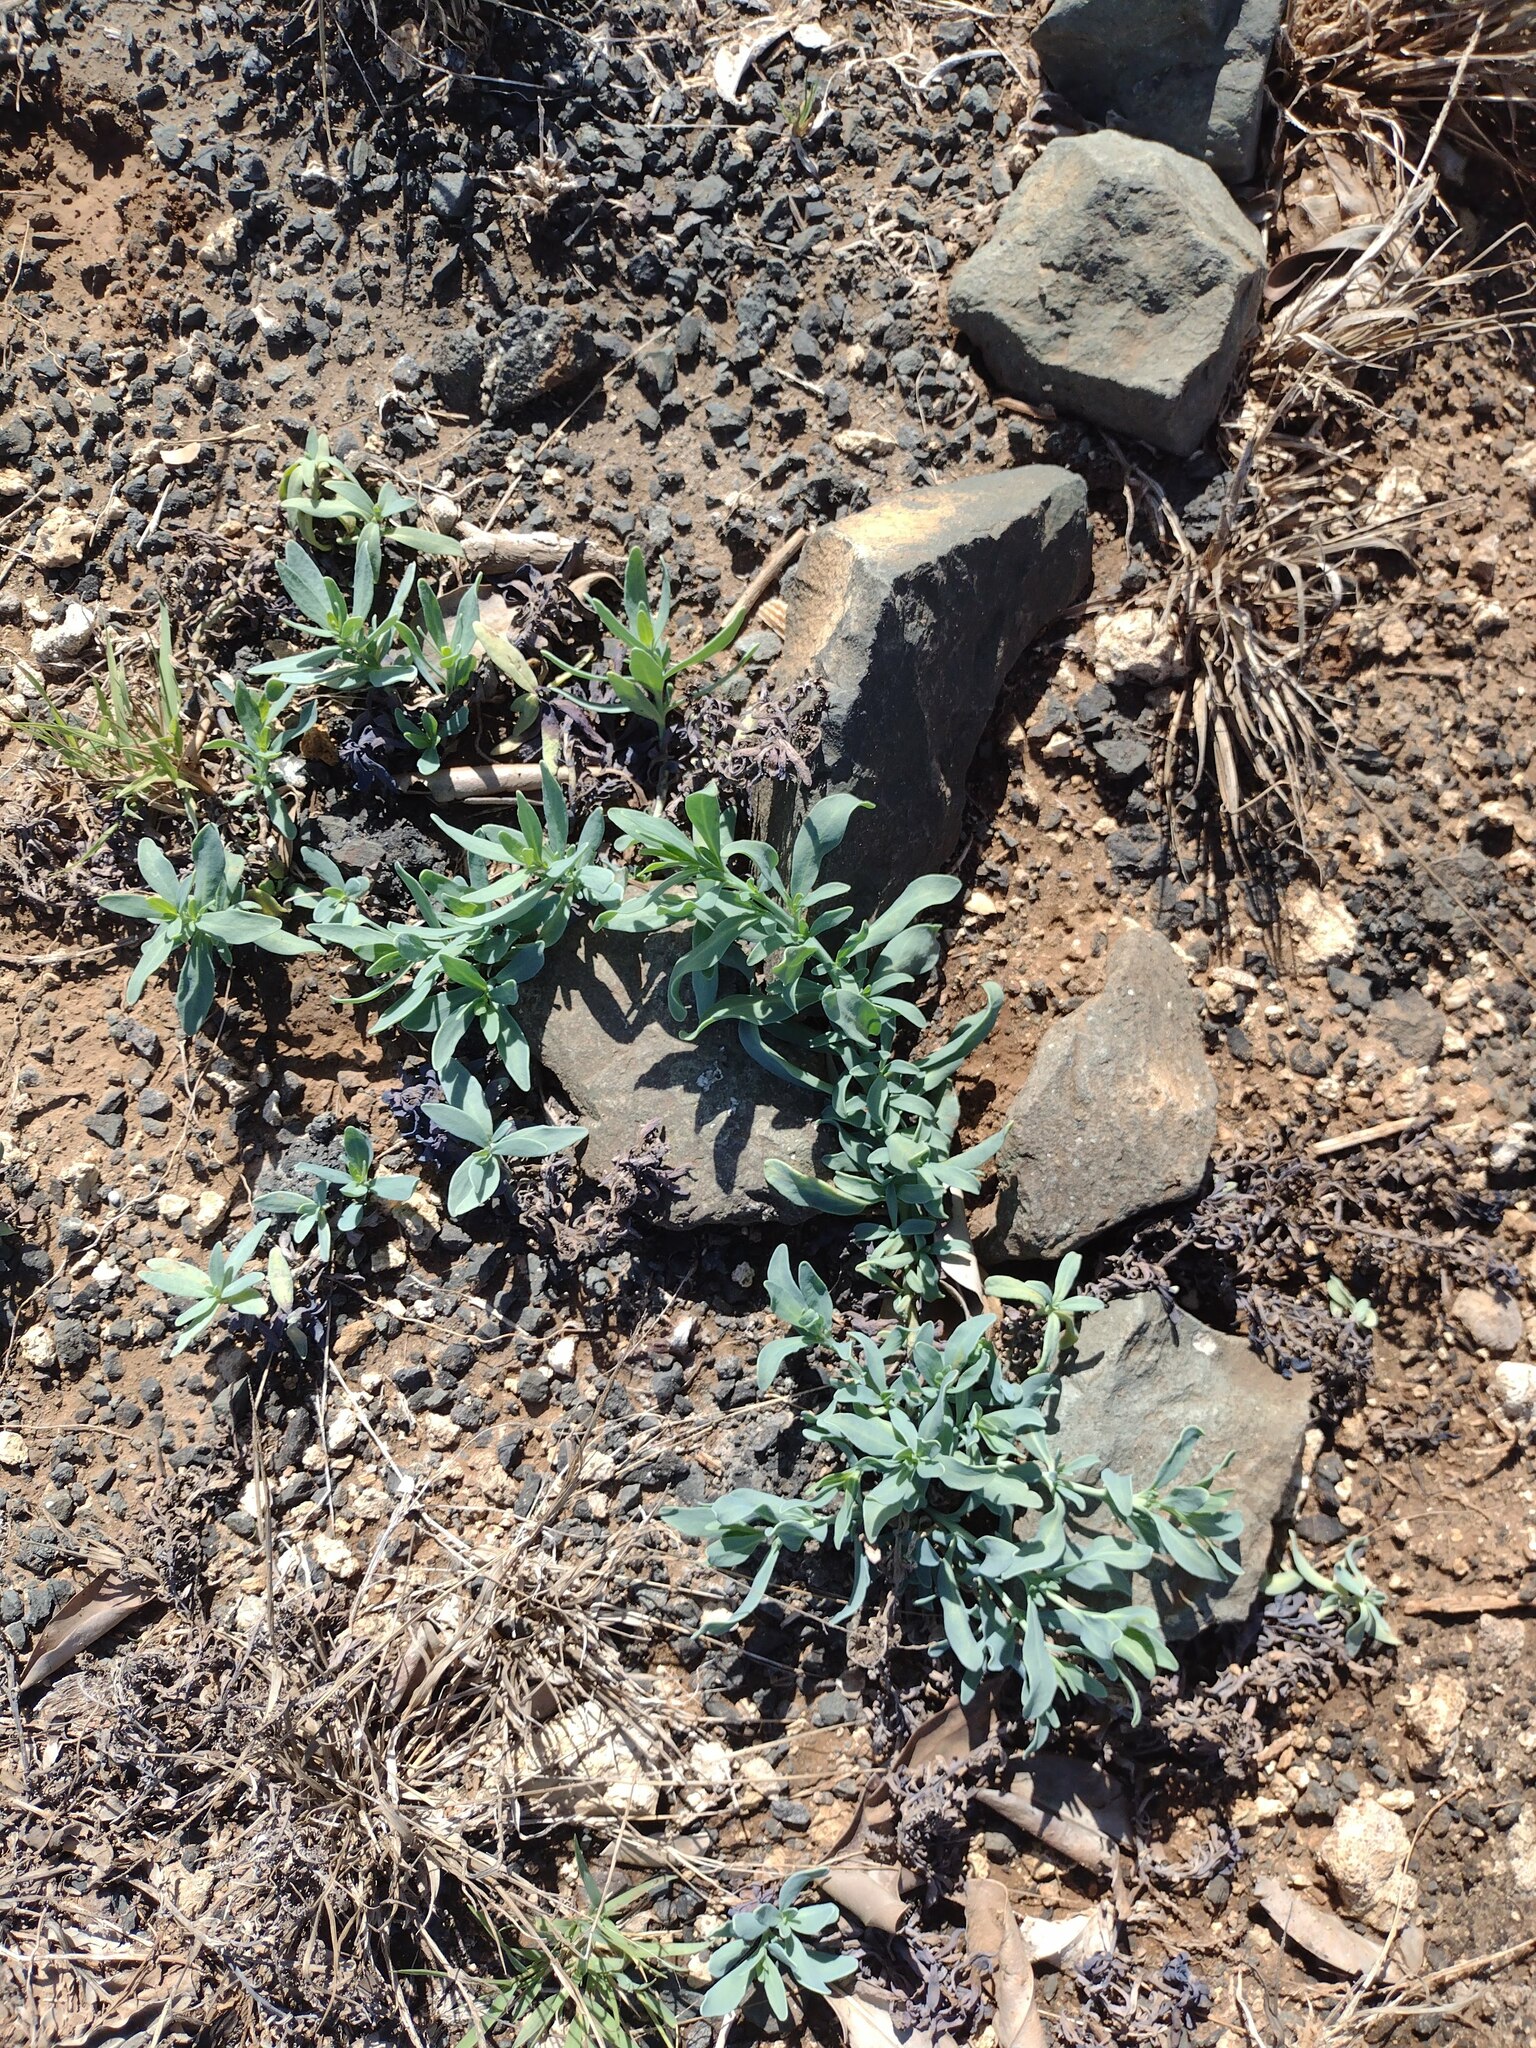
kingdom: Plantae
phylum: Tracheophyta
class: Magnoliopsida
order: Boraginales
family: Heliotropiaceae
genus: Heliotropium
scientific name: Heliotropium curassavicum
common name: Seaside heliotrope
